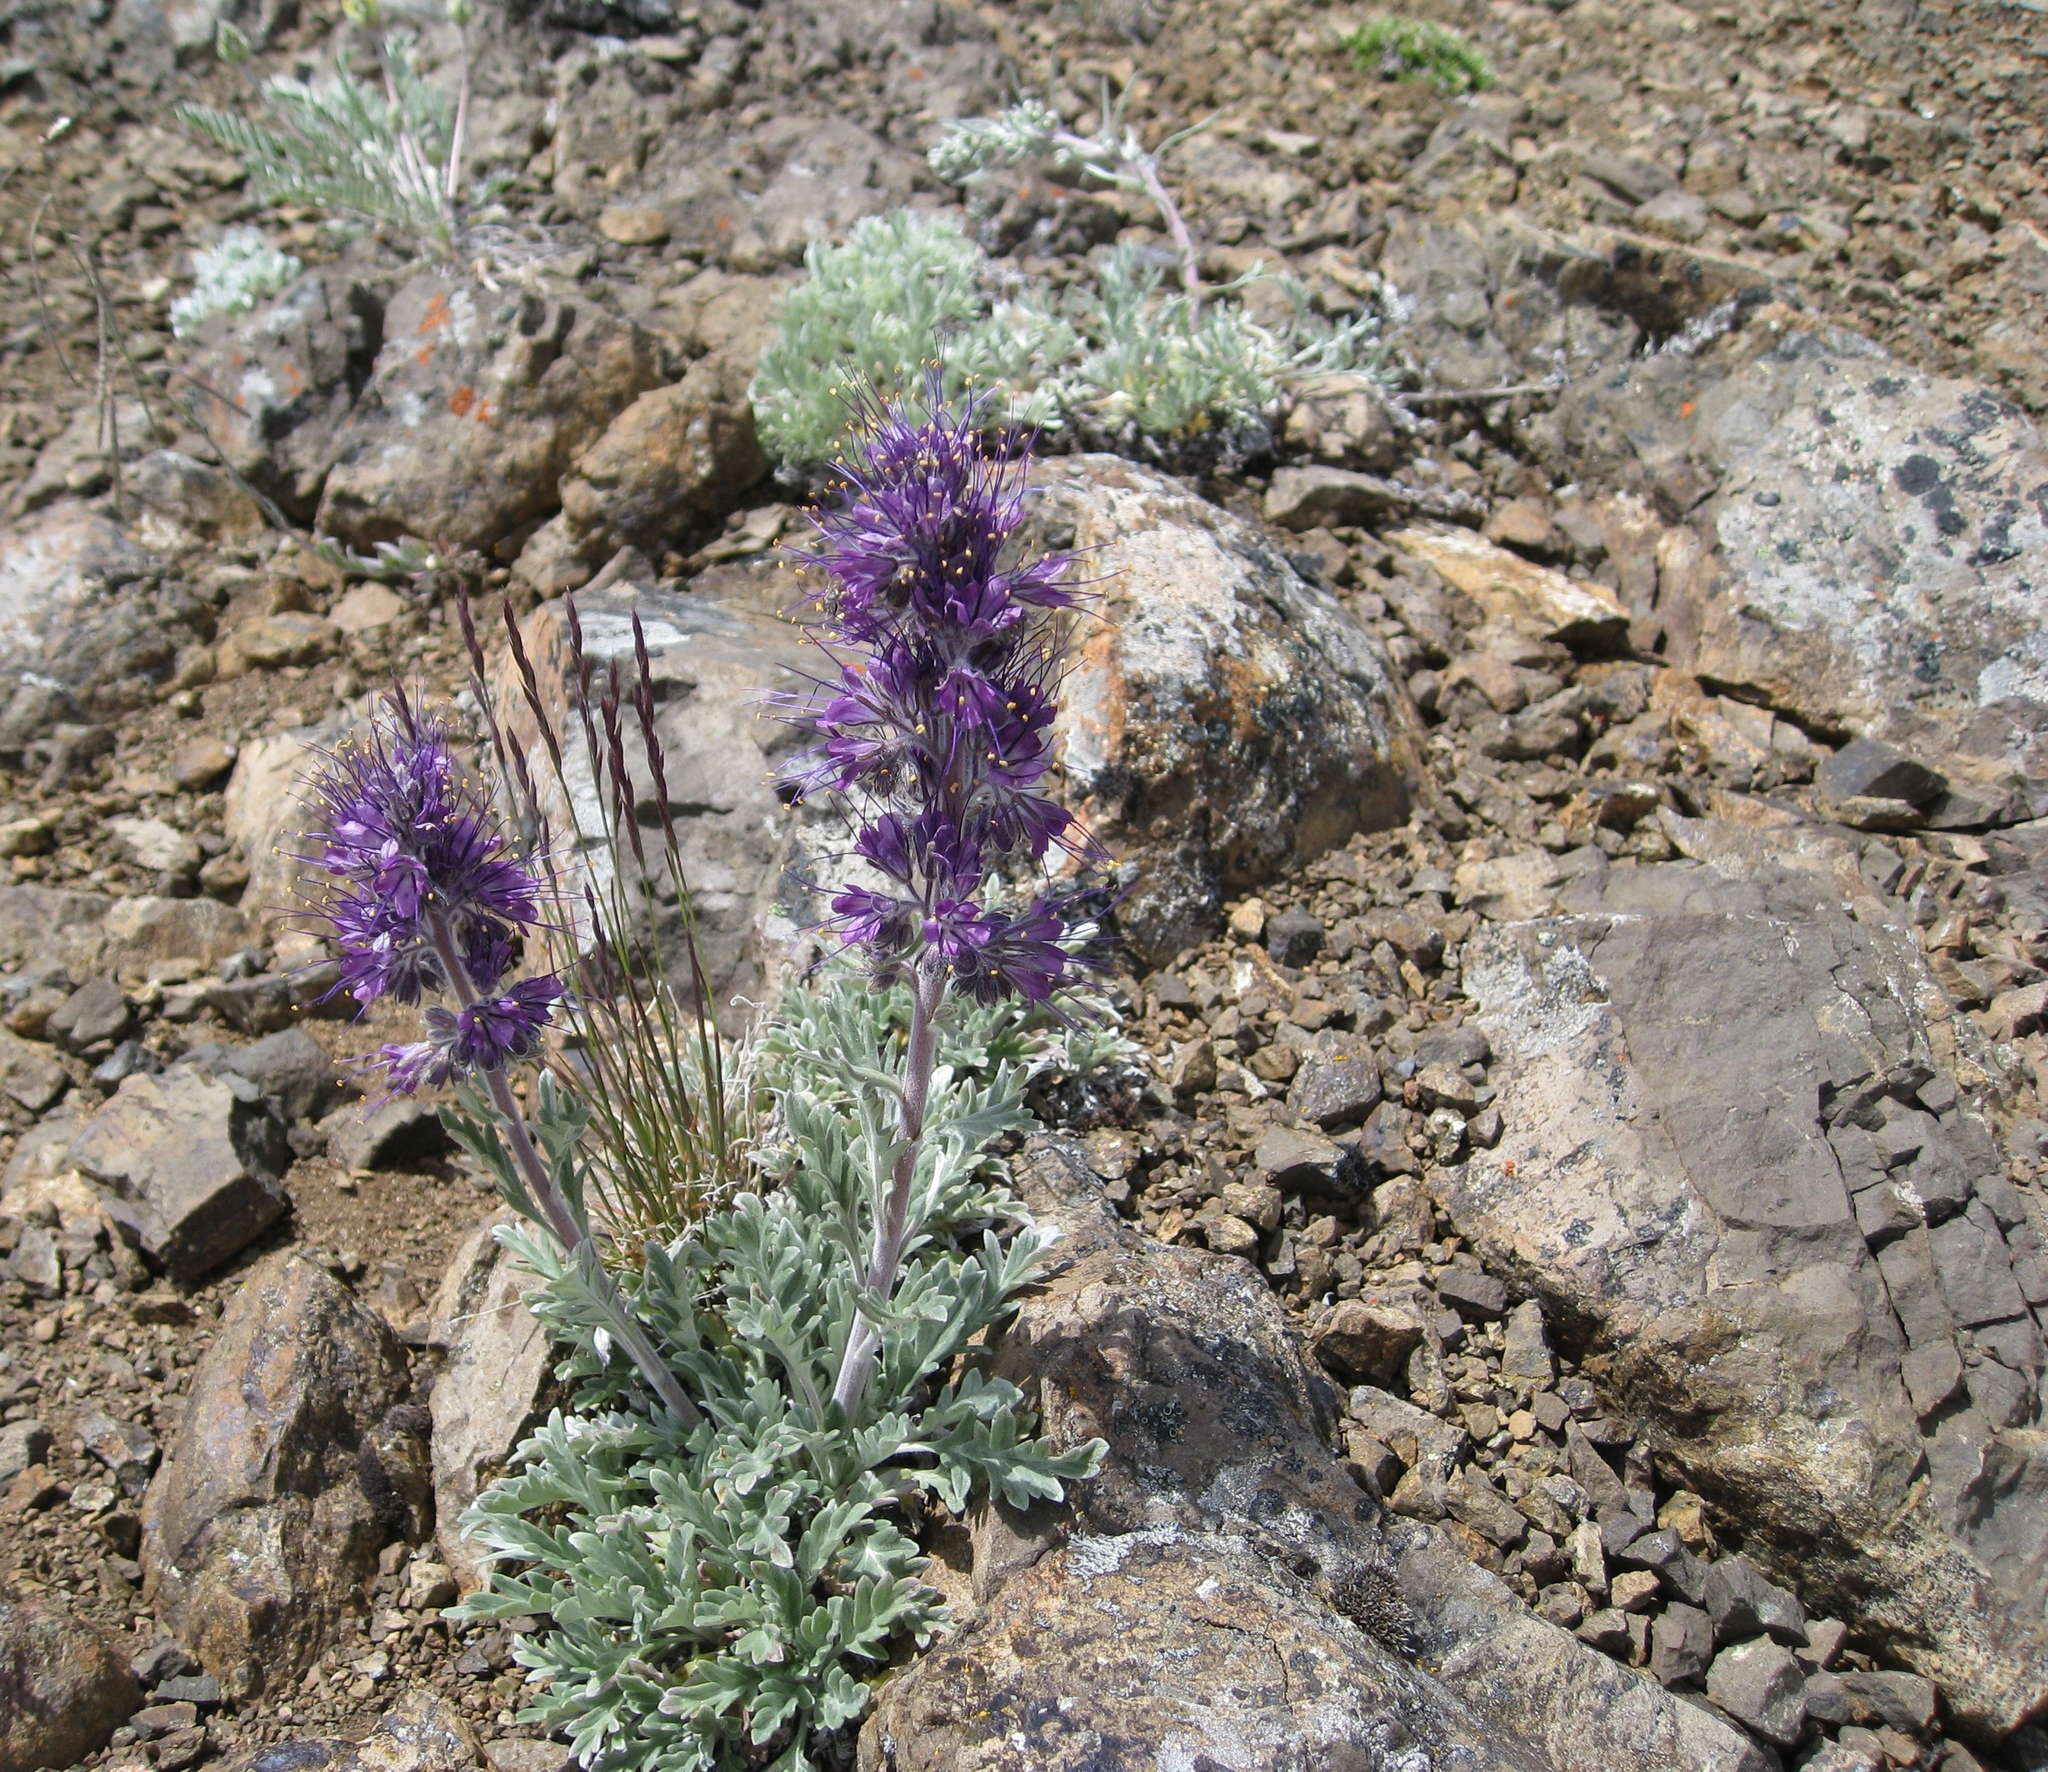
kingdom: Plantae
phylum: Tracheophyta
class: Magnoliopsida
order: Boraginales
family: Hydrophyllaceae
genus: Phacelia
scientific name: Phacelia sericea
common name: Silky phacelia
